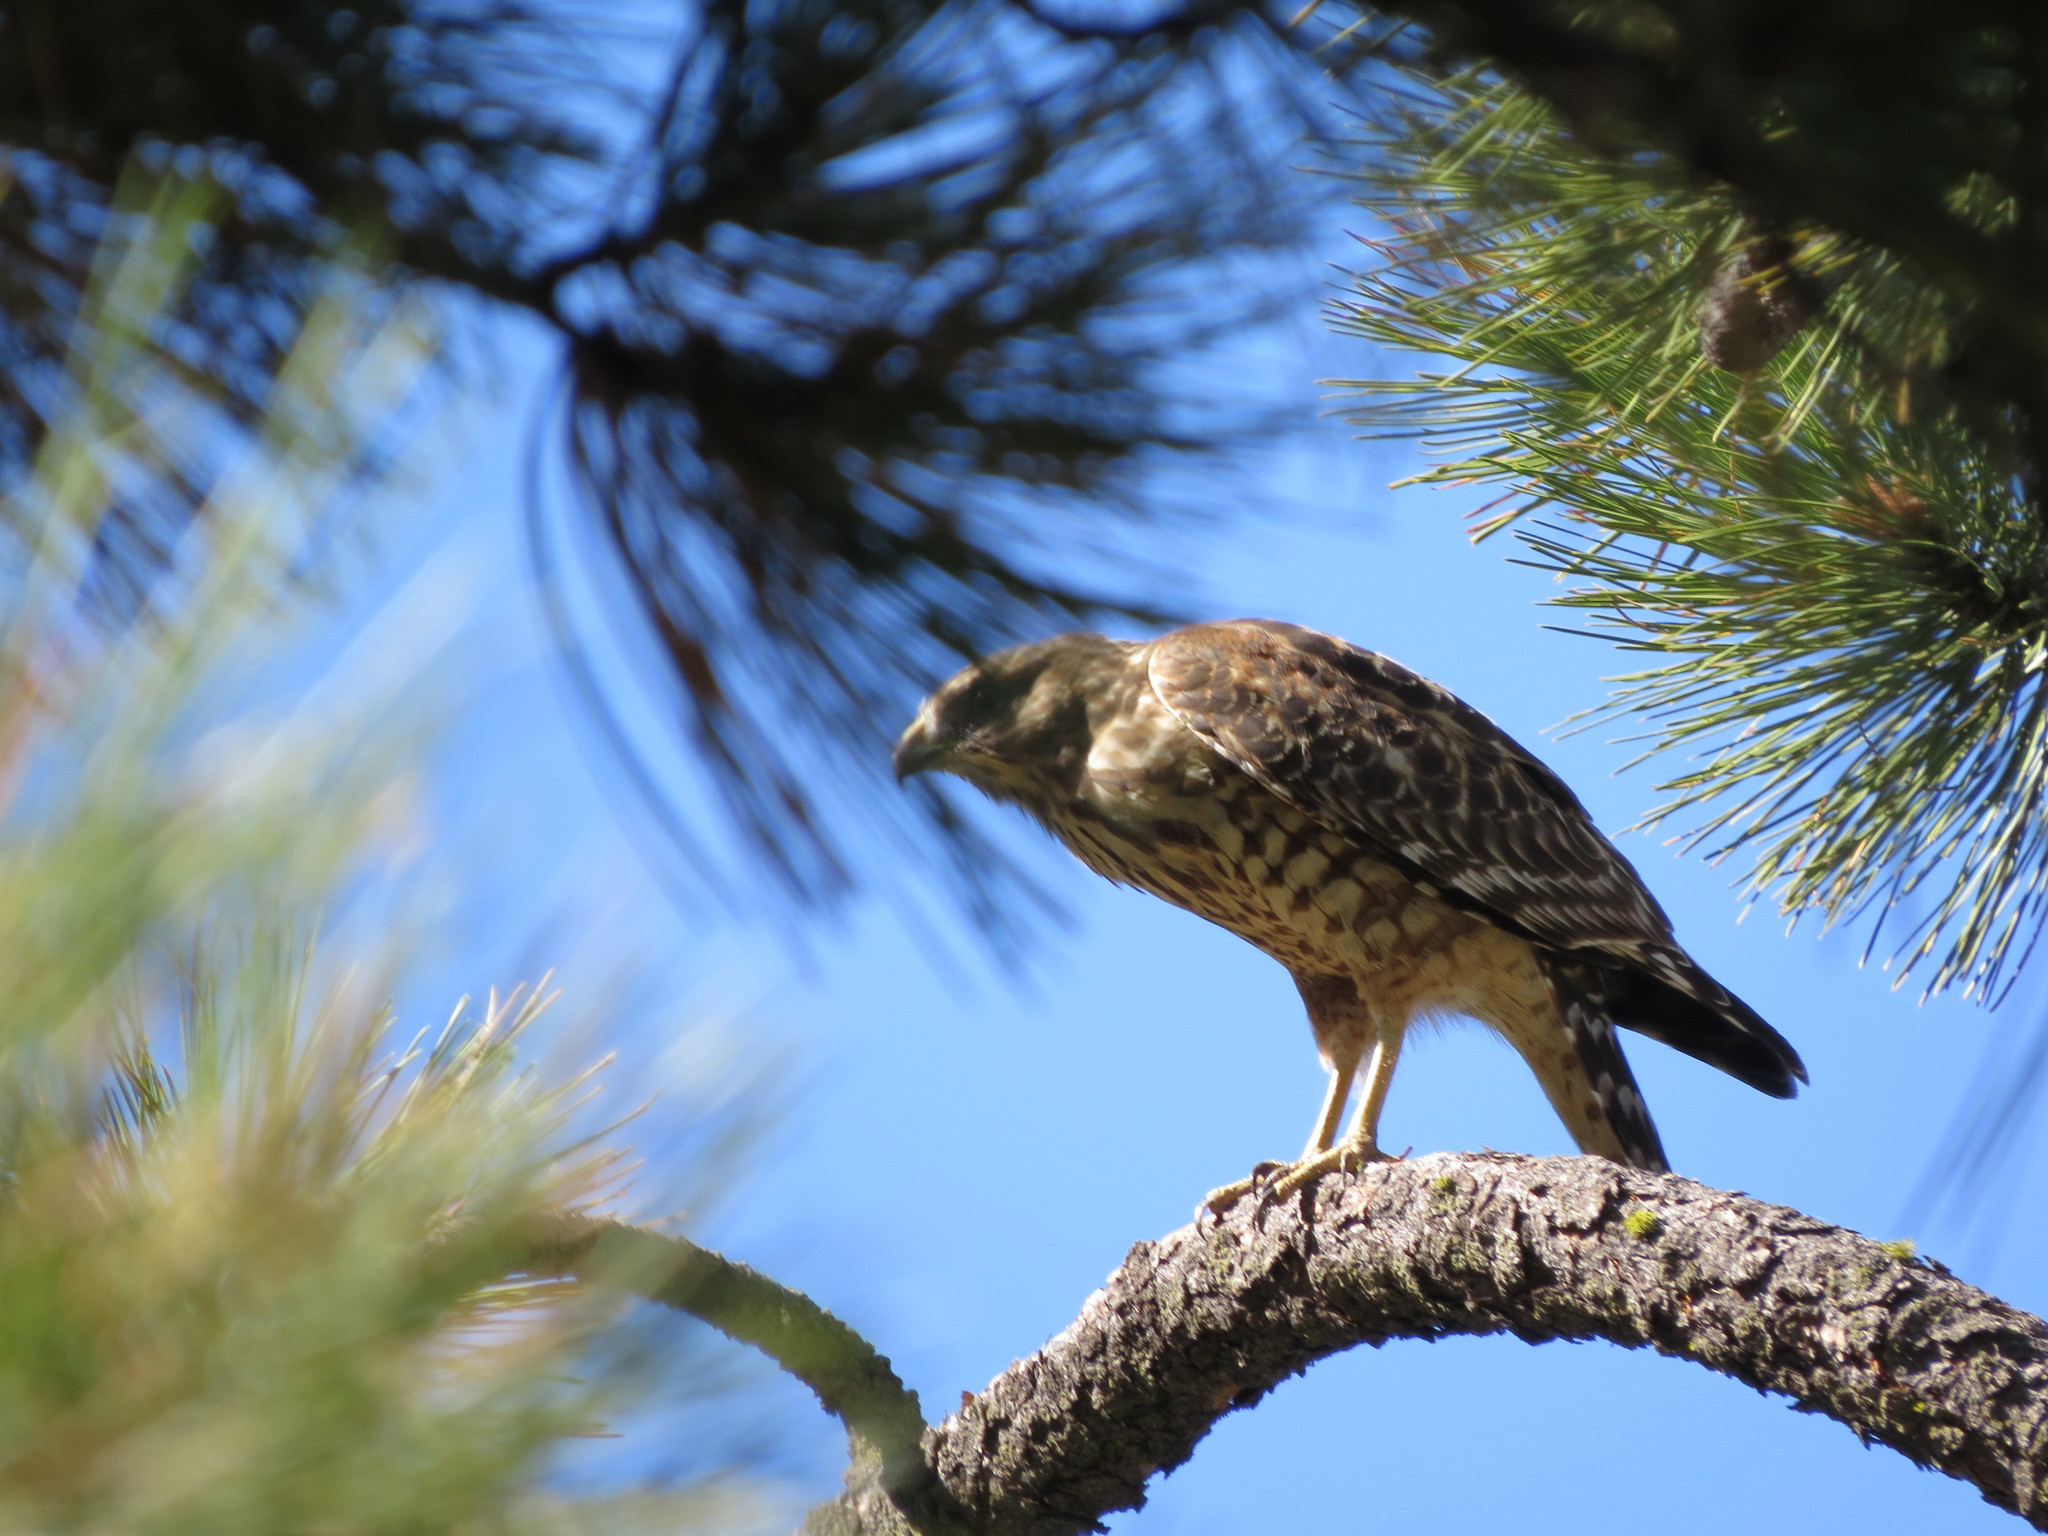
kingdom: Animalia
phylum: Chordata
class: Aves
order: Accipitriformes
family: Accipitridae
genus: Buteo
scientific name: Buteo lineatus
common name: Red-shouldered hawk
